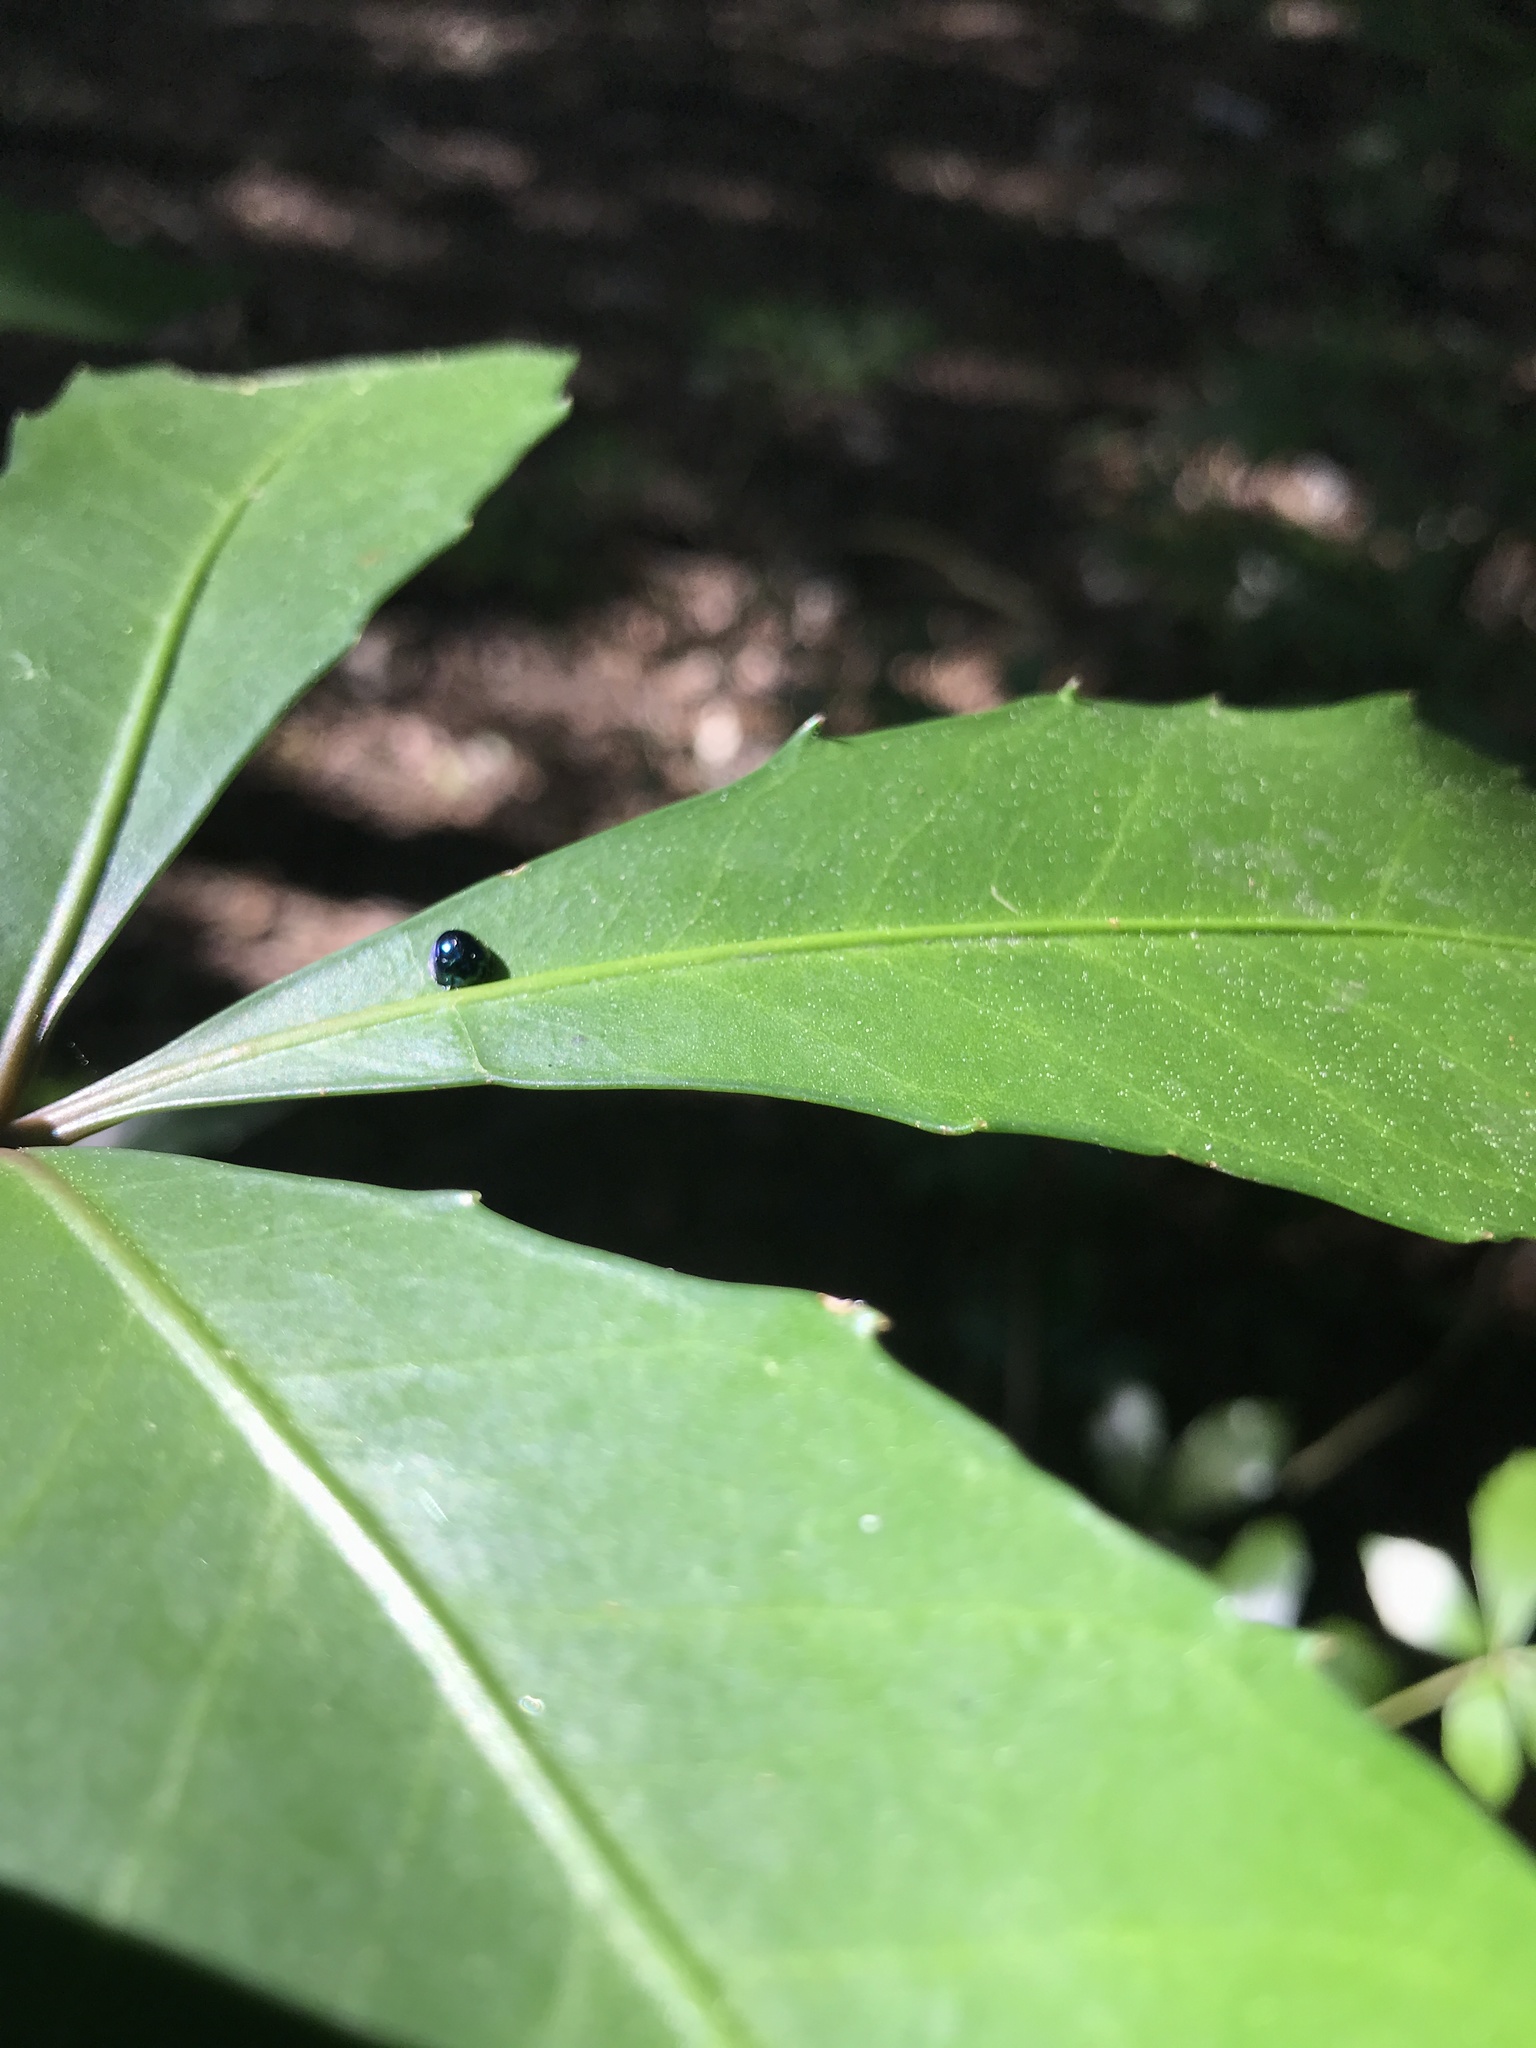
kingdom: Animalia
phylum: Arthropoda
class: Insecta
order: Coleoptera
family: Coccinellidae
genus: Halmus
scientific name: Halmus chalybeus
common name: Steel blue ladybird beetle
